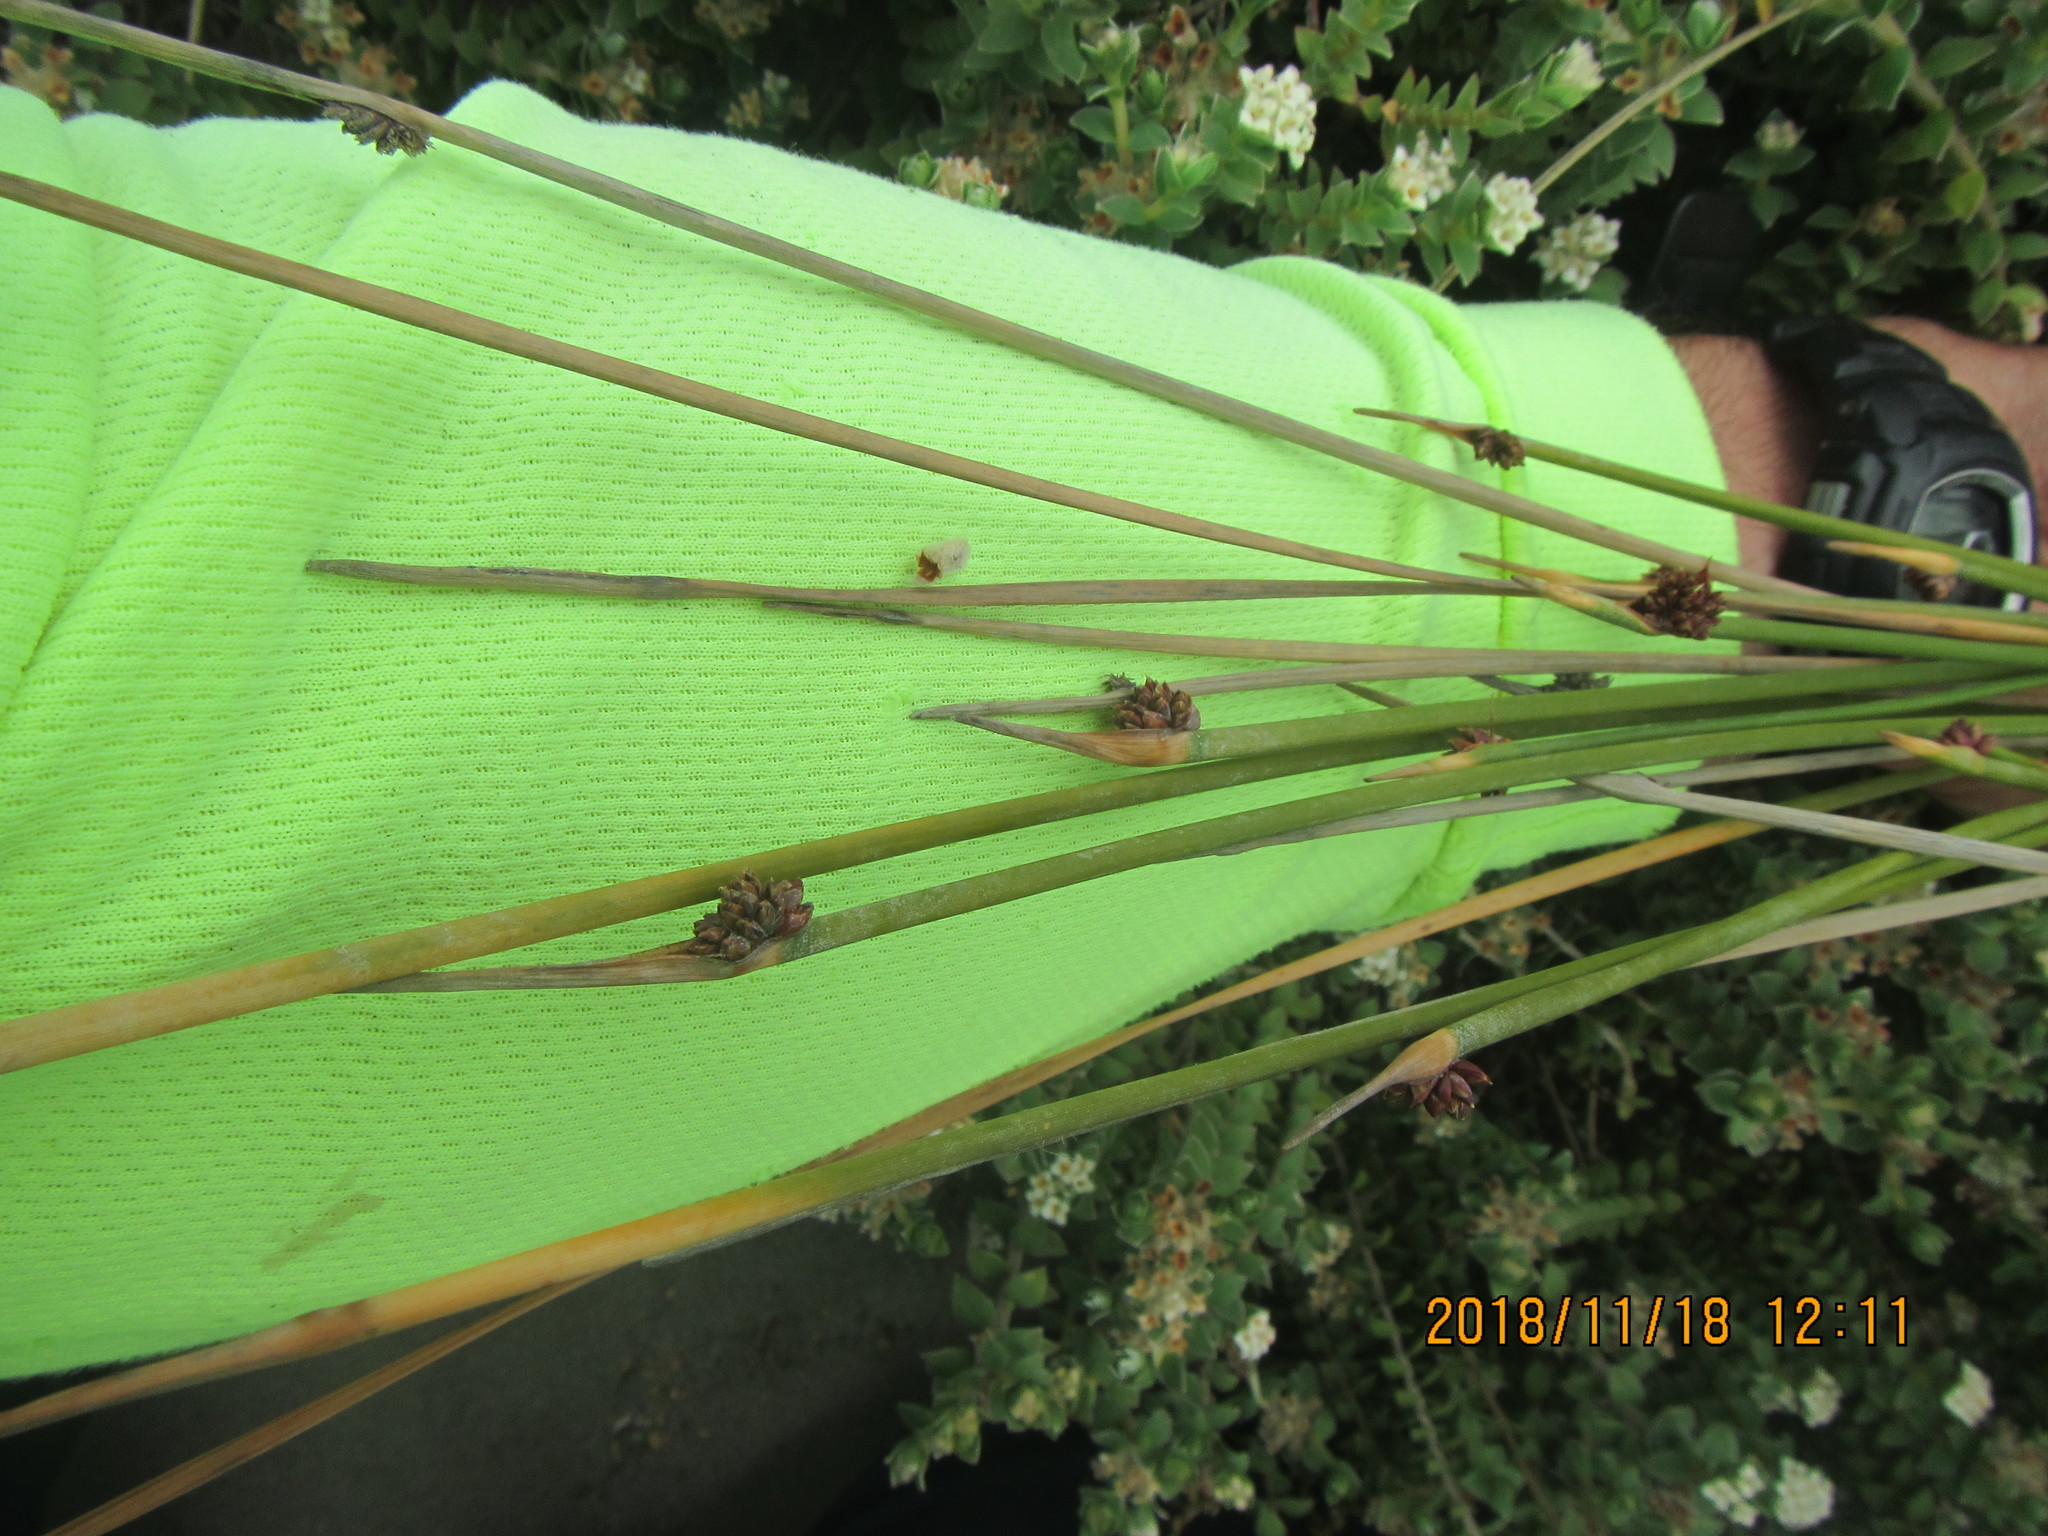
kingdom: Plantae
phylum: Tracheophyta
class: Liliopsida
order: Poales
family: Cyperaceae
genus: Ficinia
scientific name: Ficinia nodosa
